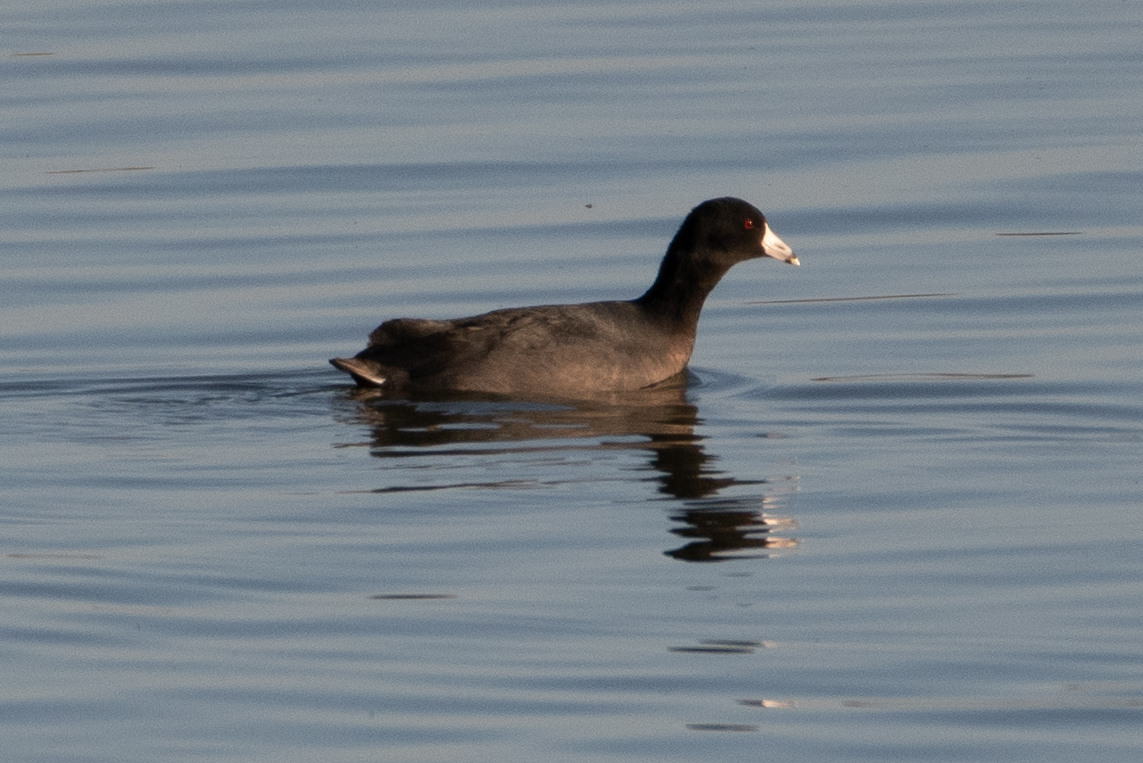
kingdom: Animalia
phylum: Chordata
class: Aves
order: Gruiformes
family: Rallidae
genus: Fulica
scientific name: Fulica americana
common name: American coot
